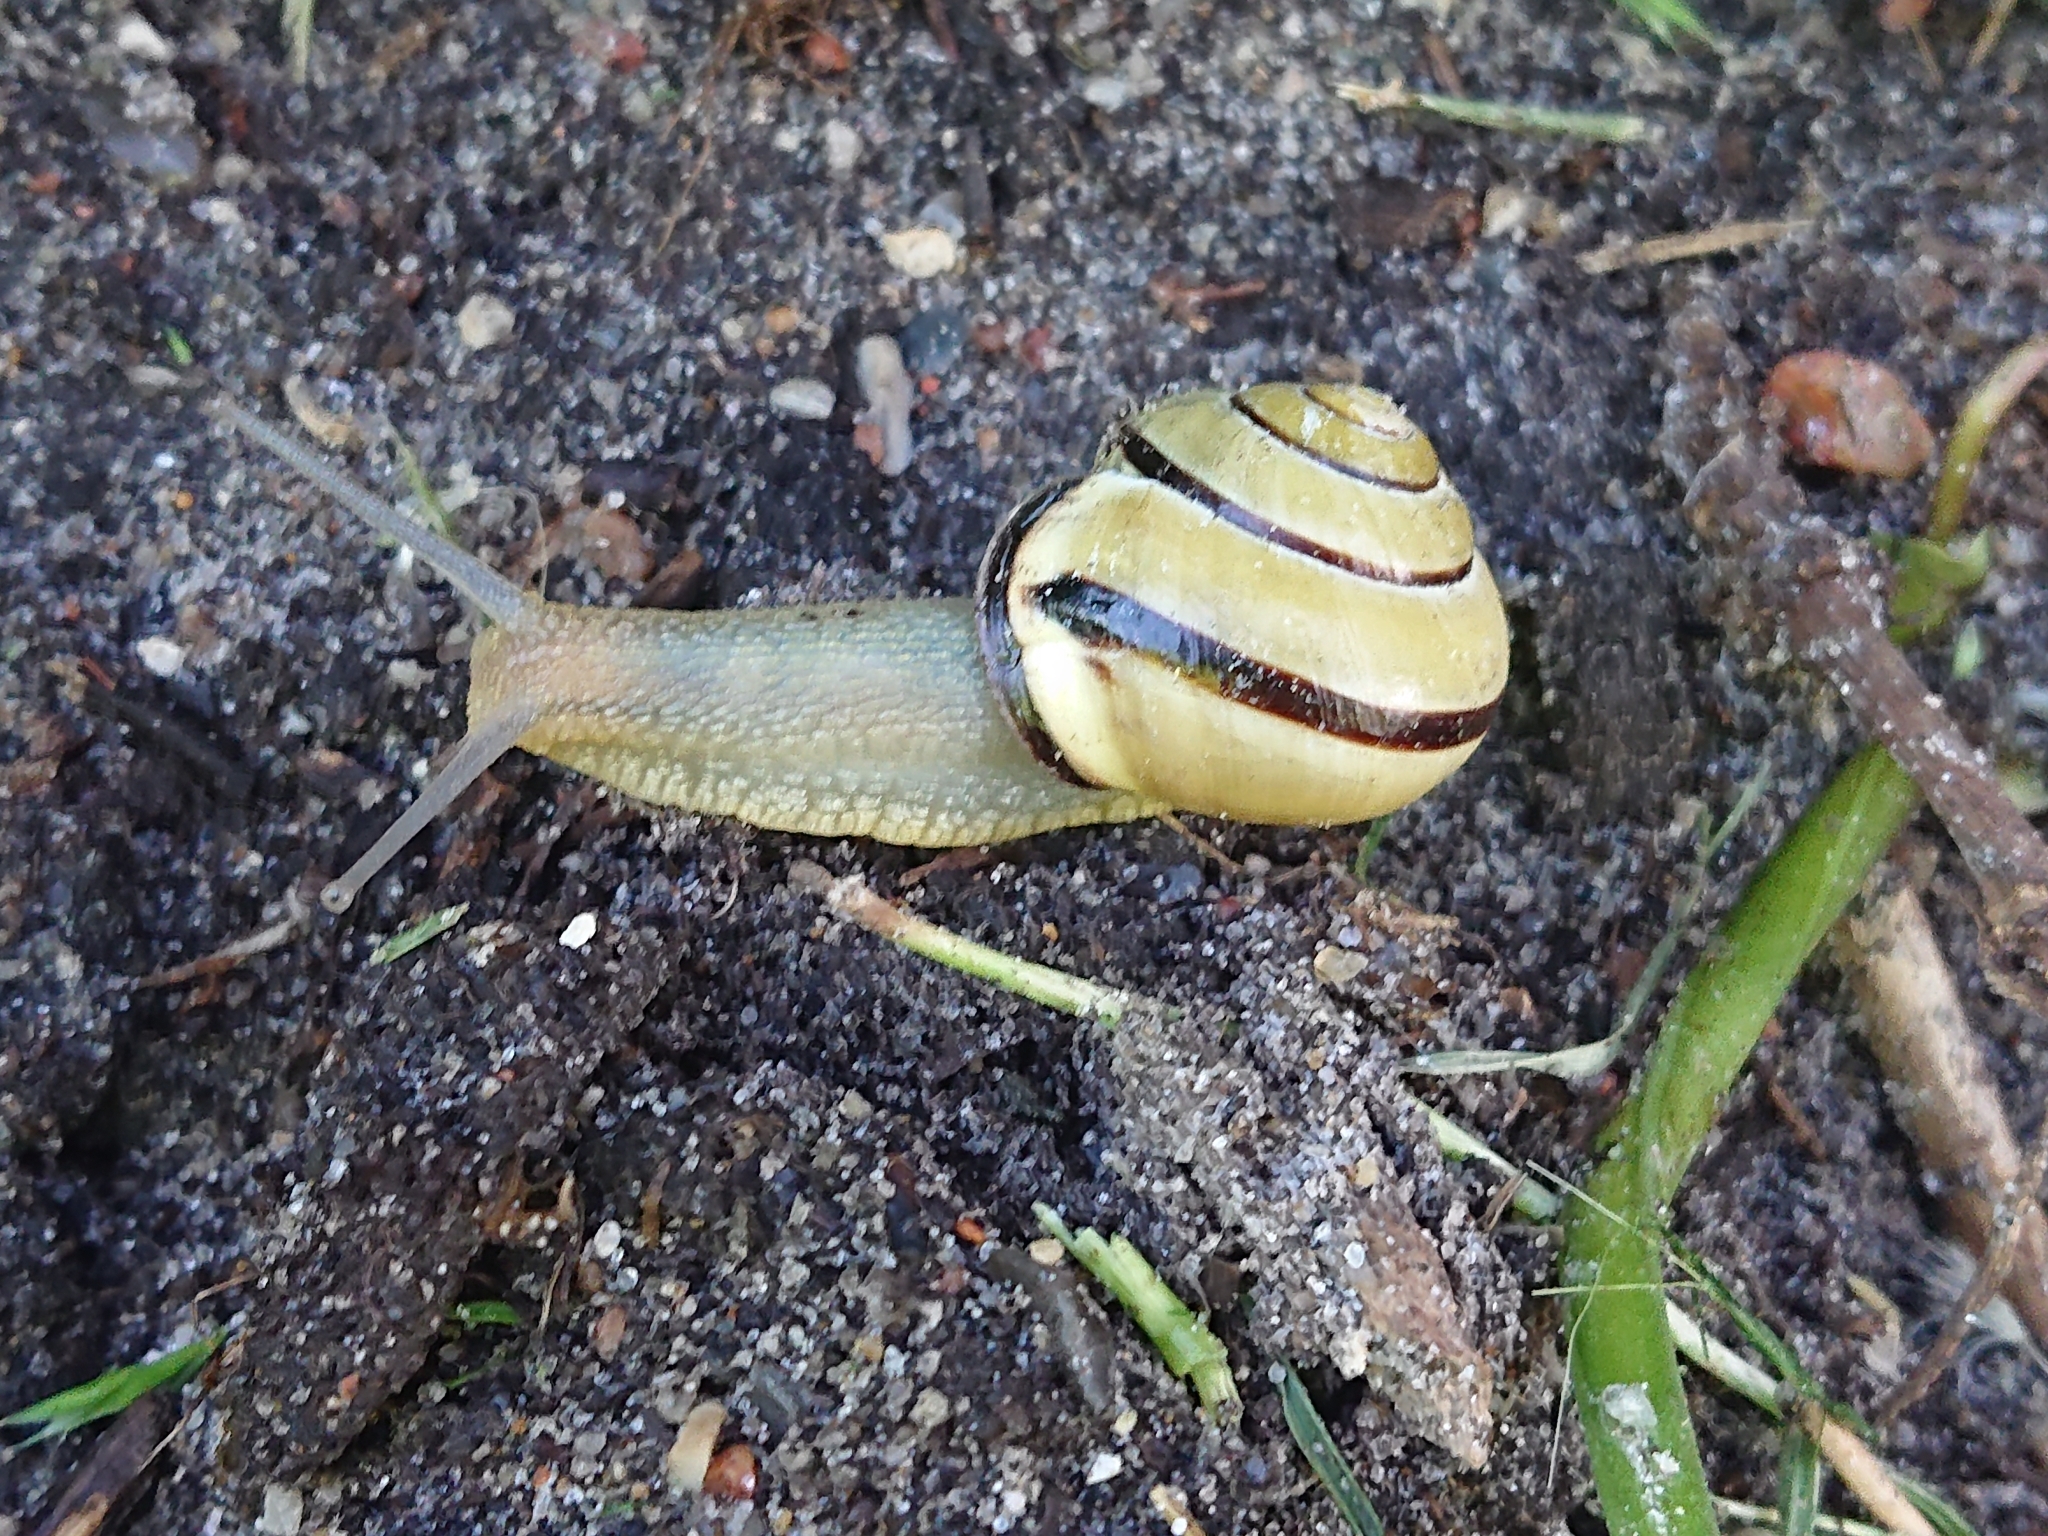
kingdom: Animalia
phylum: Mollusca
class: Gastropoda
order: Stylommatophora
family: Helicidae
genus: Cepaea
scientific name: Cepaea nemoralis
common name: Grovesnail
